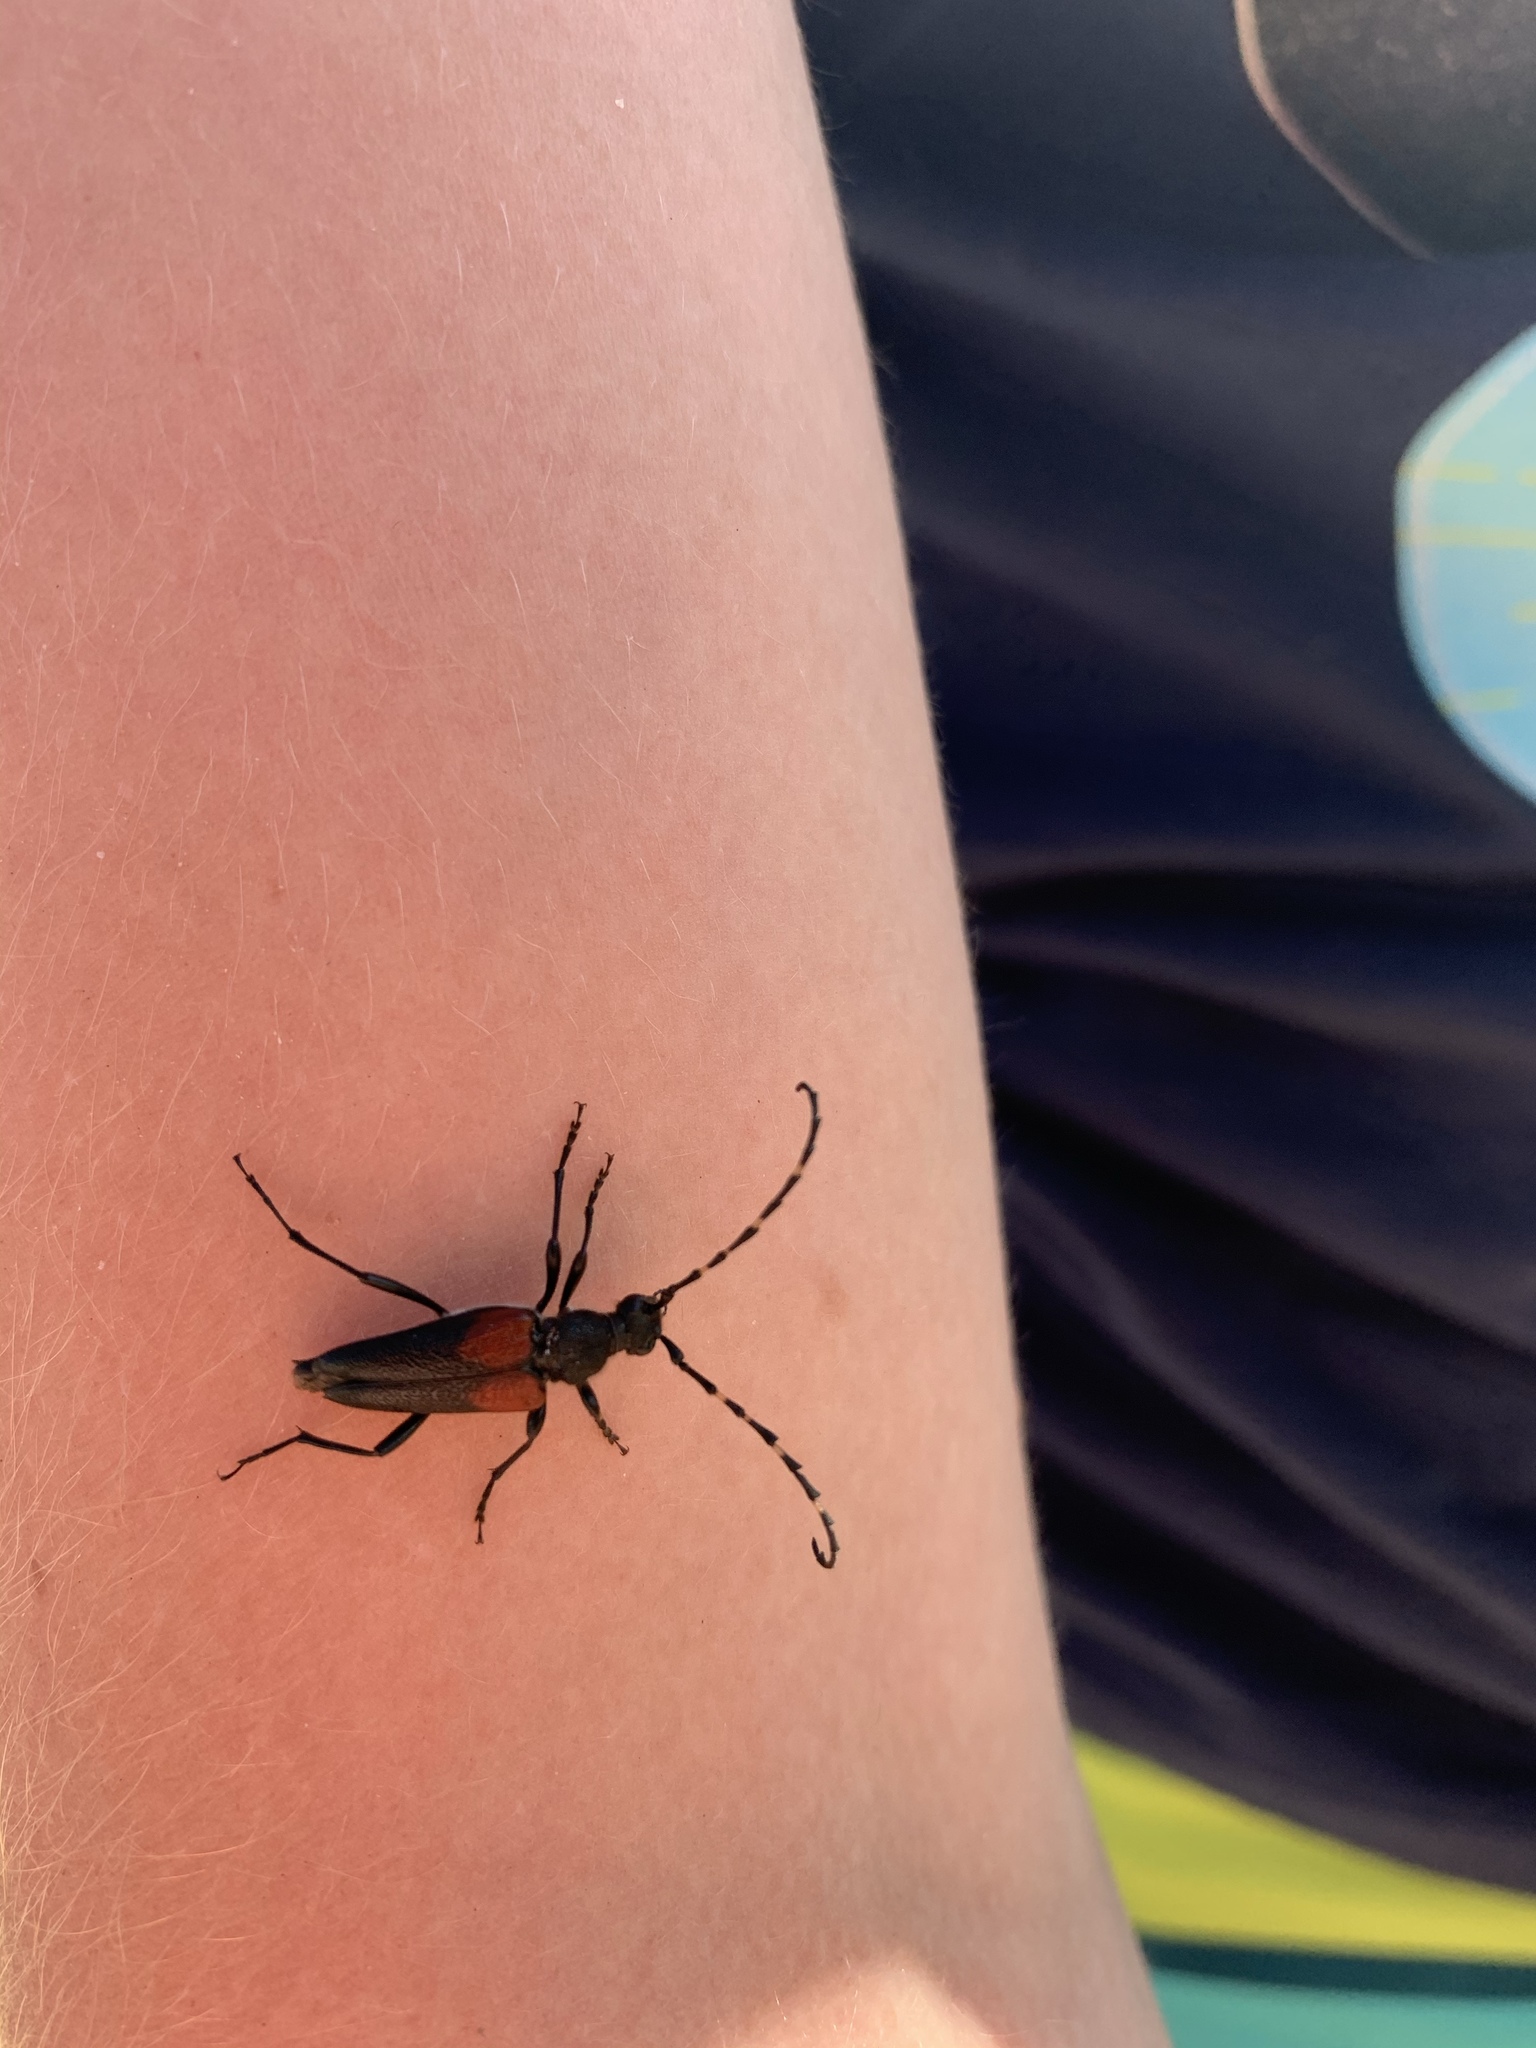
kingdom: Animalia
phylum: Arthropoda
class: Insecta
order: Coleoptera
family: Cerambycidae
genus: Stictoleptura
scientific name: Stictoleptura canadensis
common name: Red-shouldered pine borer
